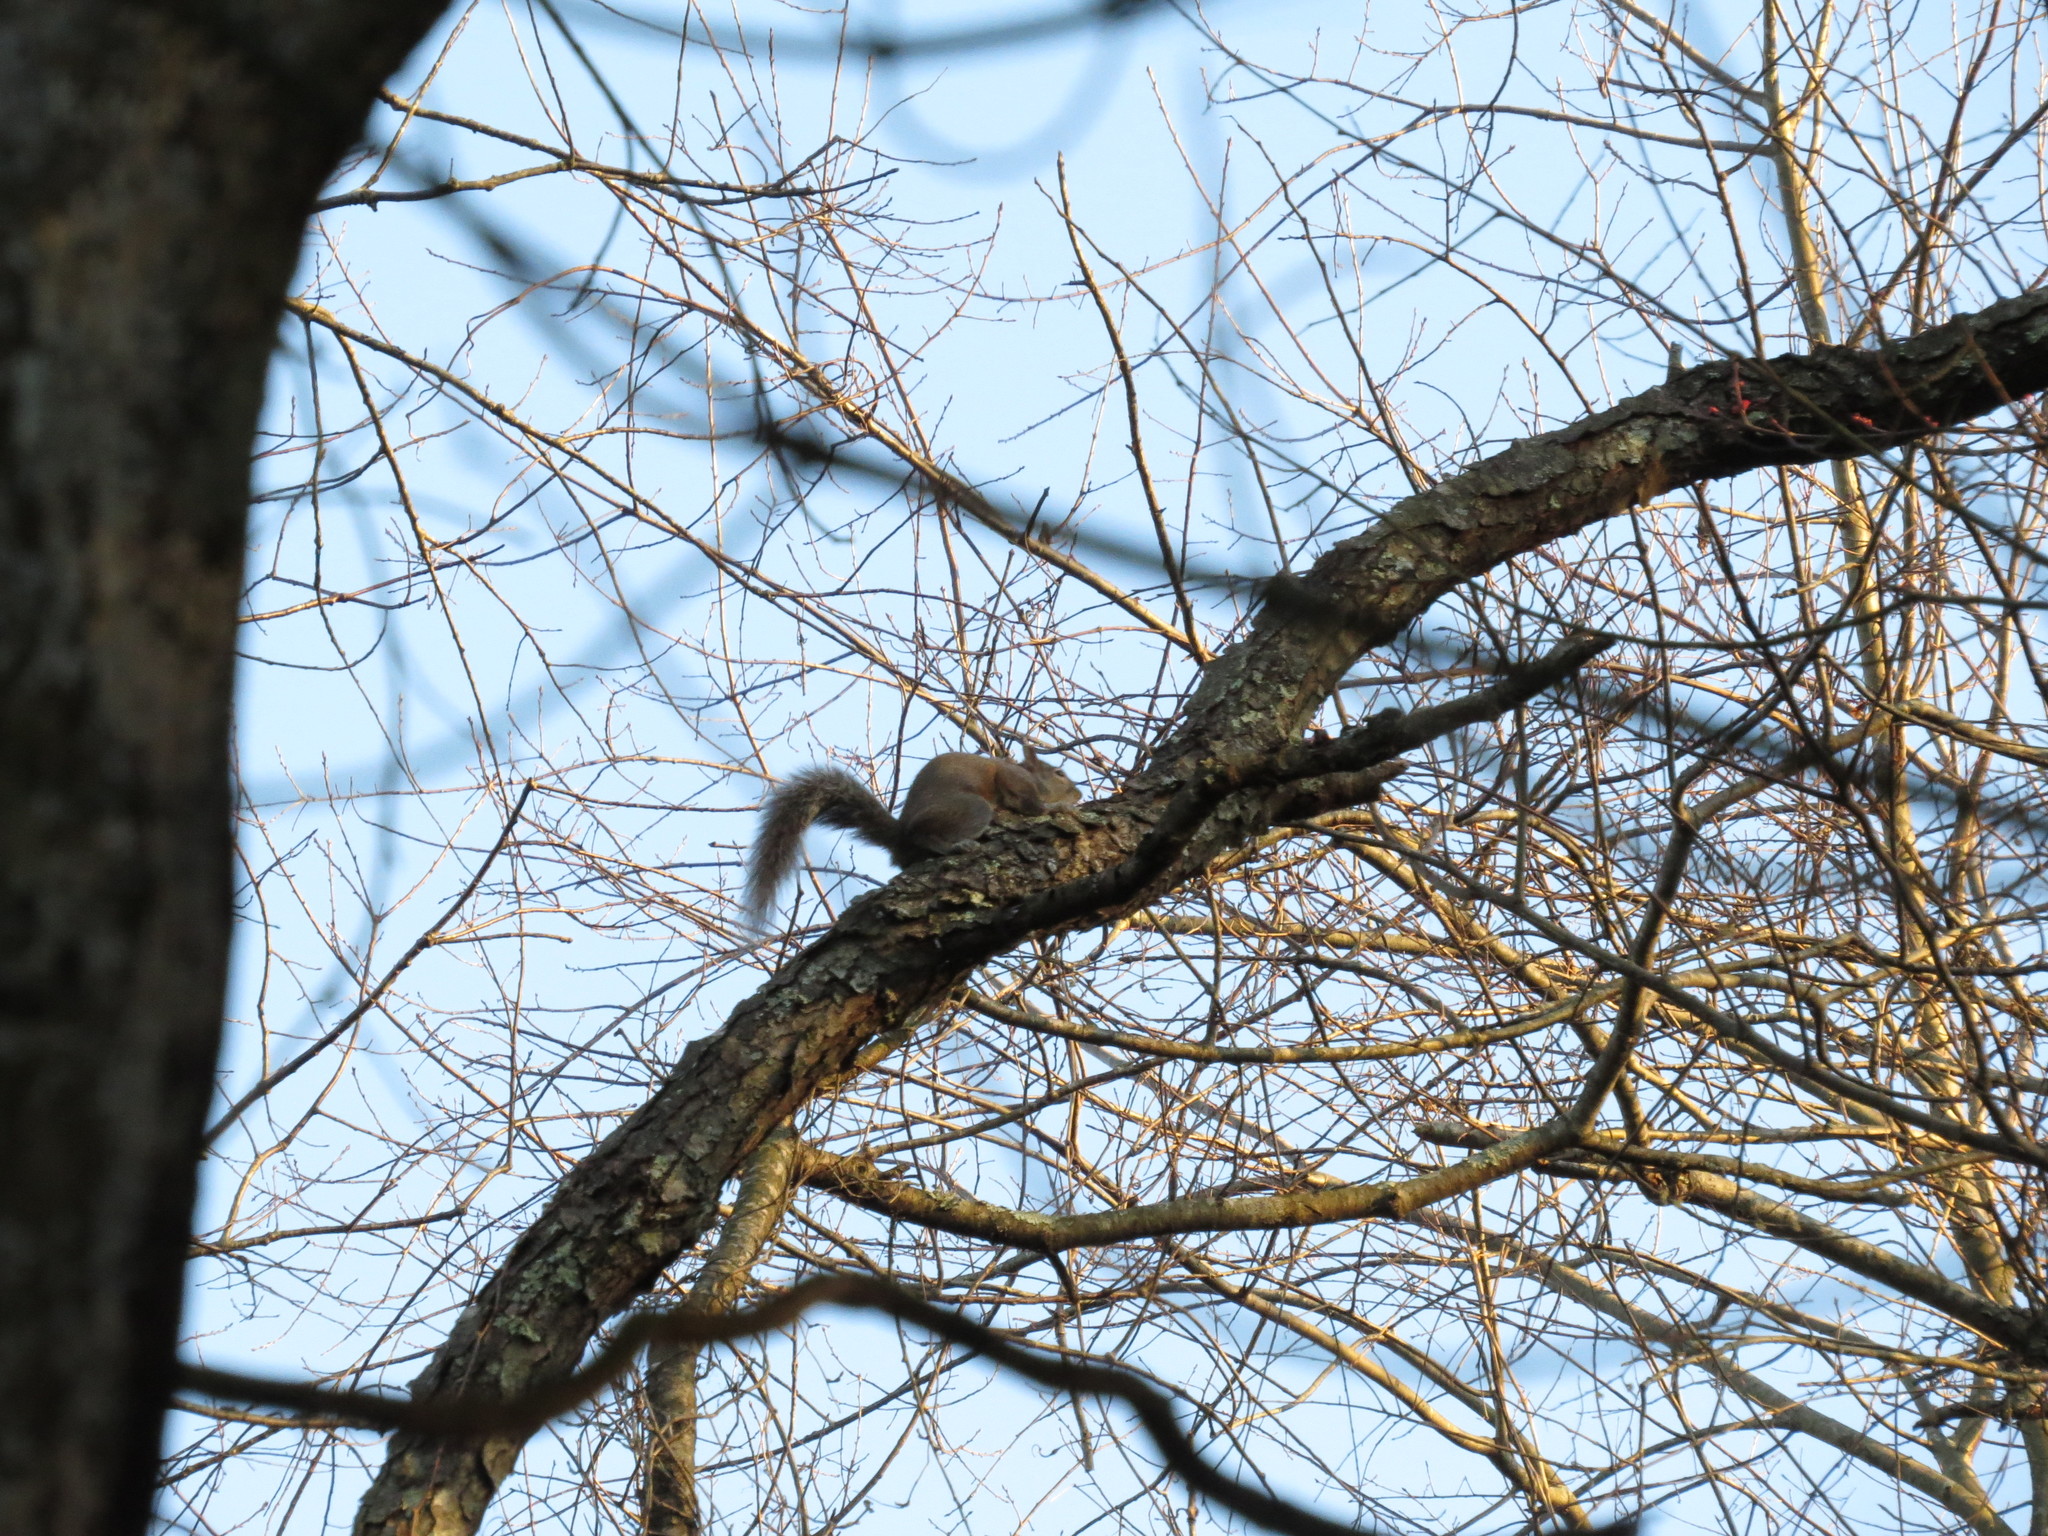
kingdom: Animalia
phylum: Chordata
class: Mammalia
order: Rodentia
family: Sciuridae
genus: Sciurus
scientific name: Sciurus carolinensis
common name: Eastern gray squirrel
